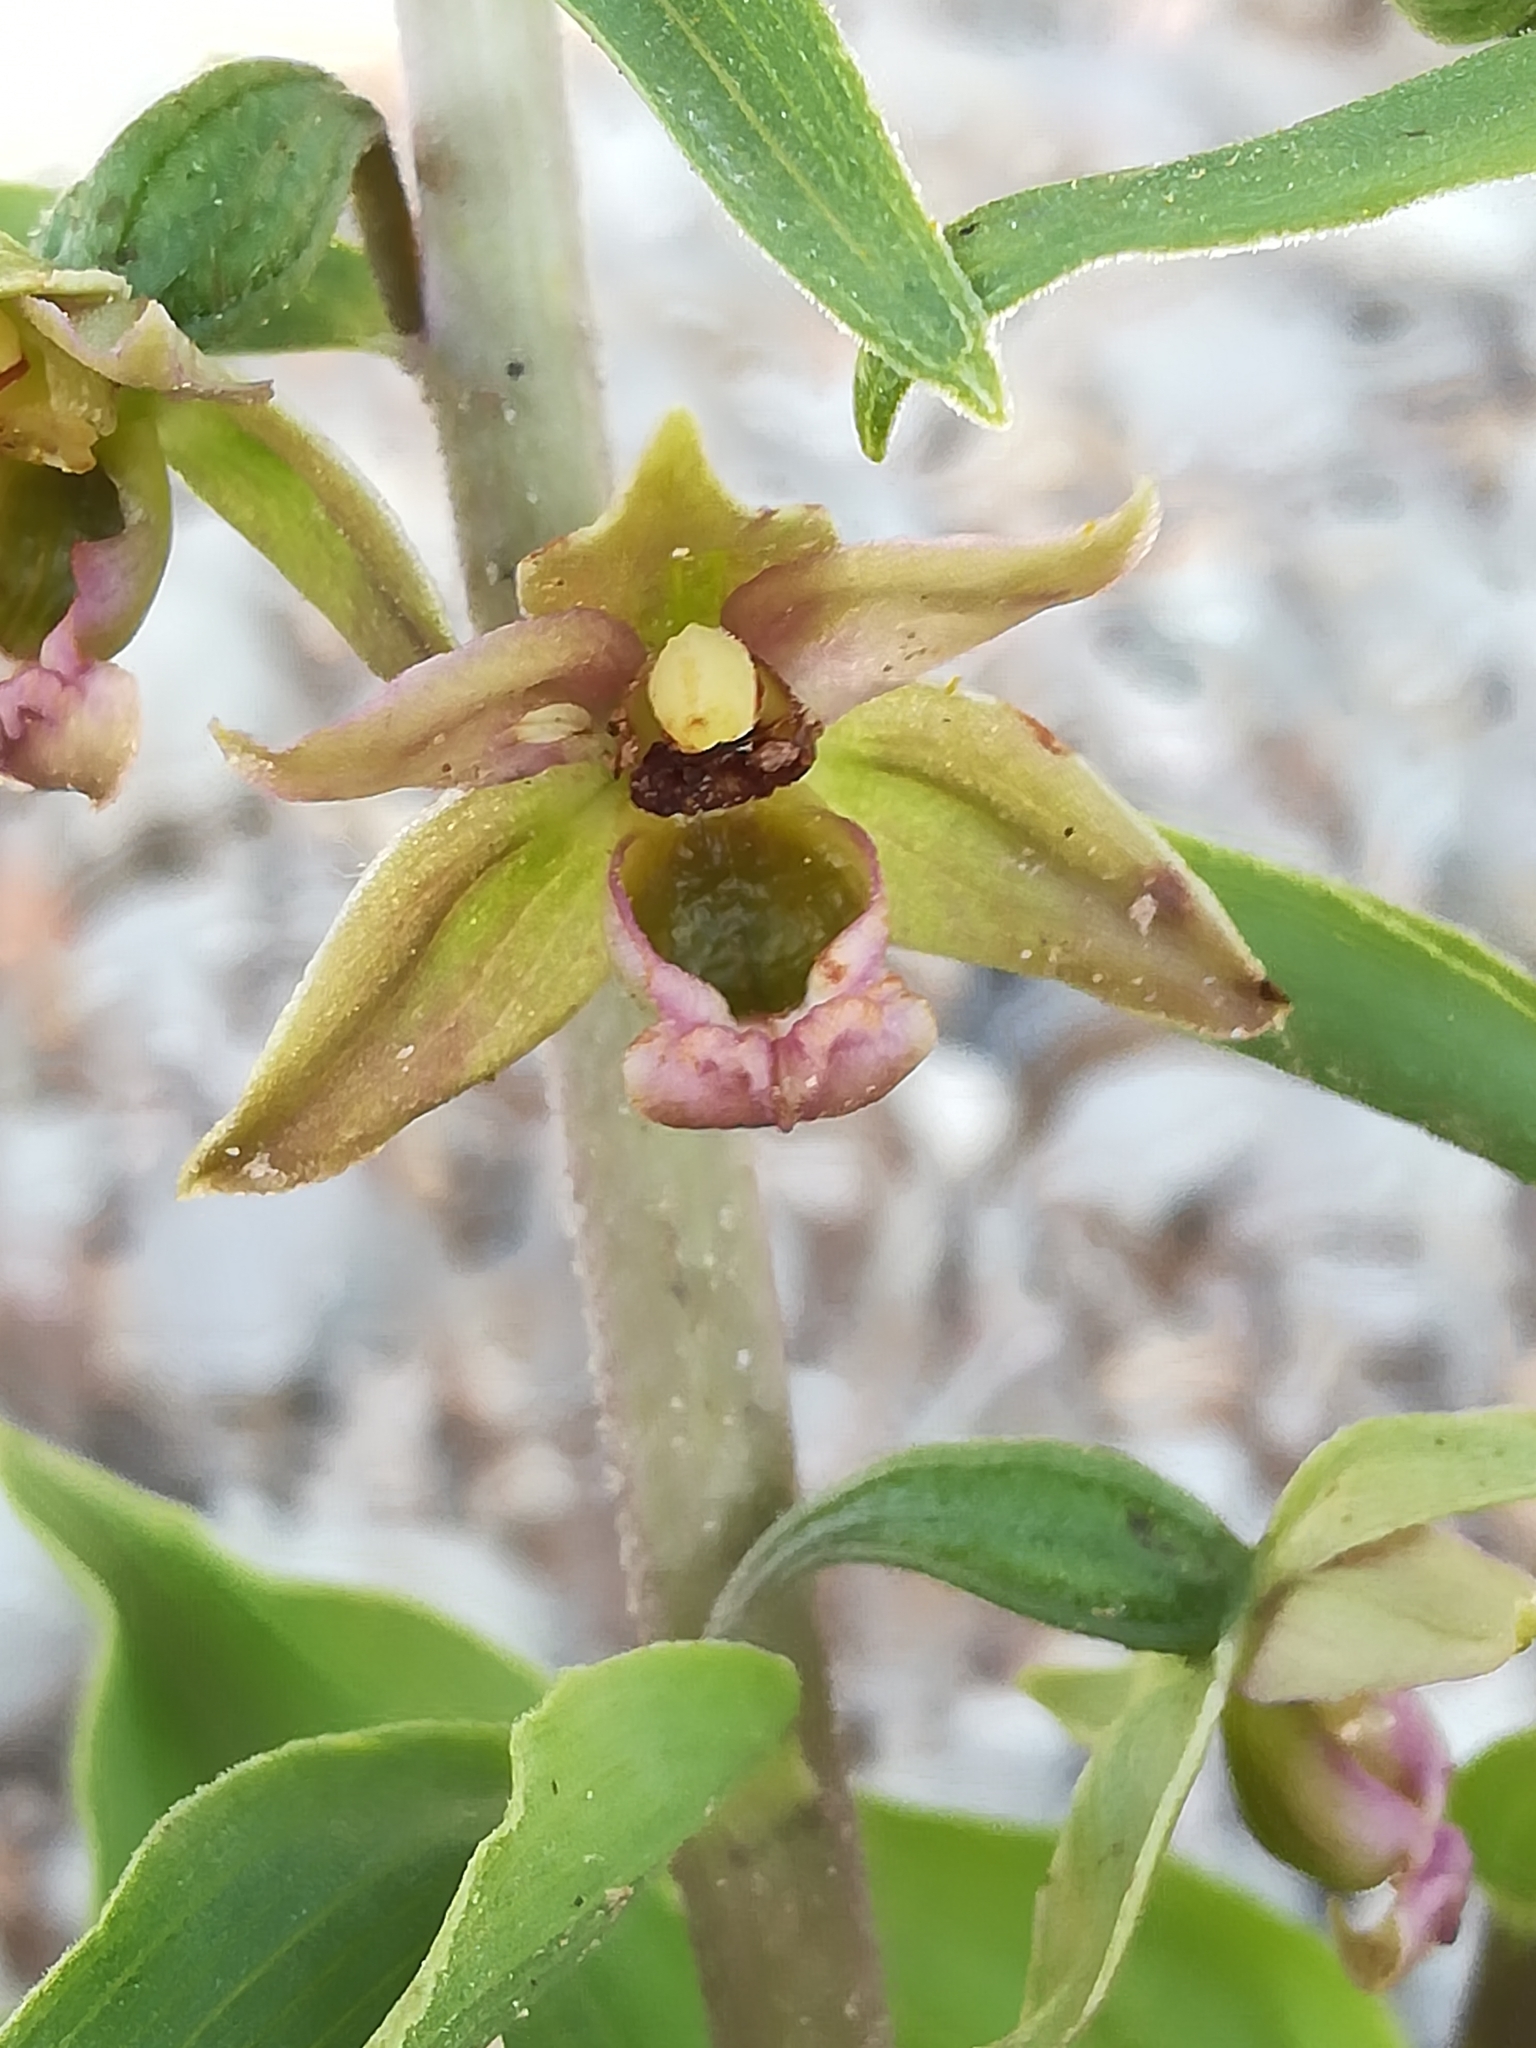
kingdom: Plantae
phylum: Tracheophyta
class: Liliopsida
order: Asparagales
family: Orchidaceae
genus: Epipactis
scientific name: Epipactis helleborine
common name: Broad-leaved helleborine
